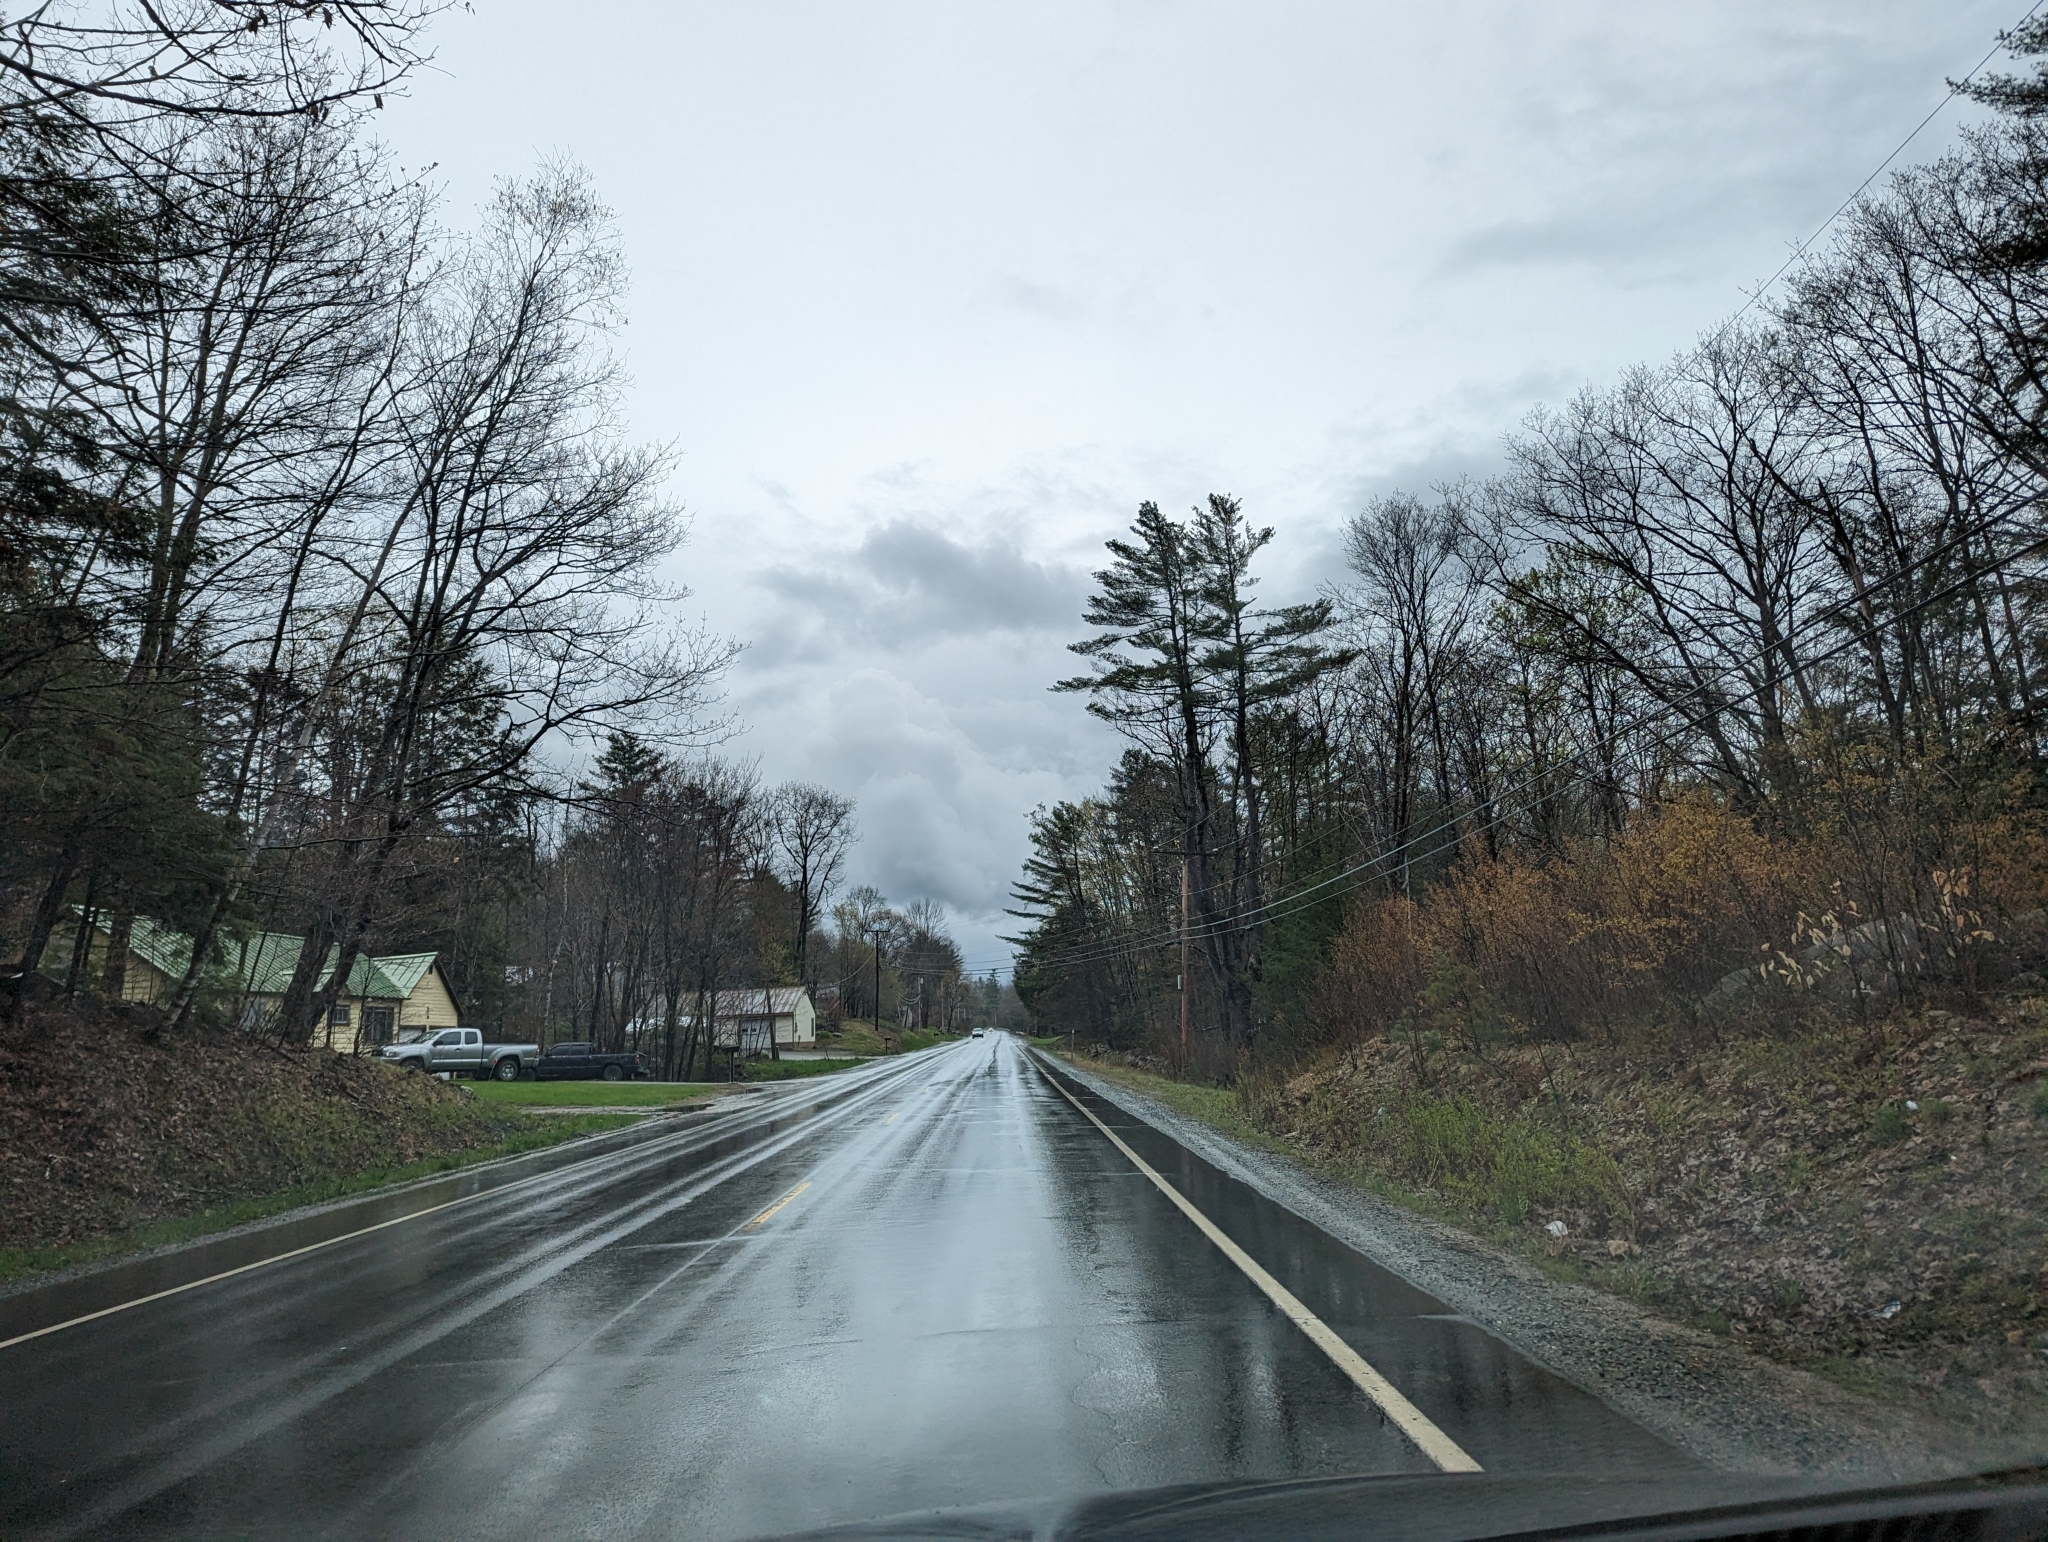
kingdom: Plantae
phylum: Tracheophyta
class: Pinopsida
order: Pinales
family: Pinaceae
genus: Pinus
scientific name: Pinus strobus
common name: Weymouth pine
